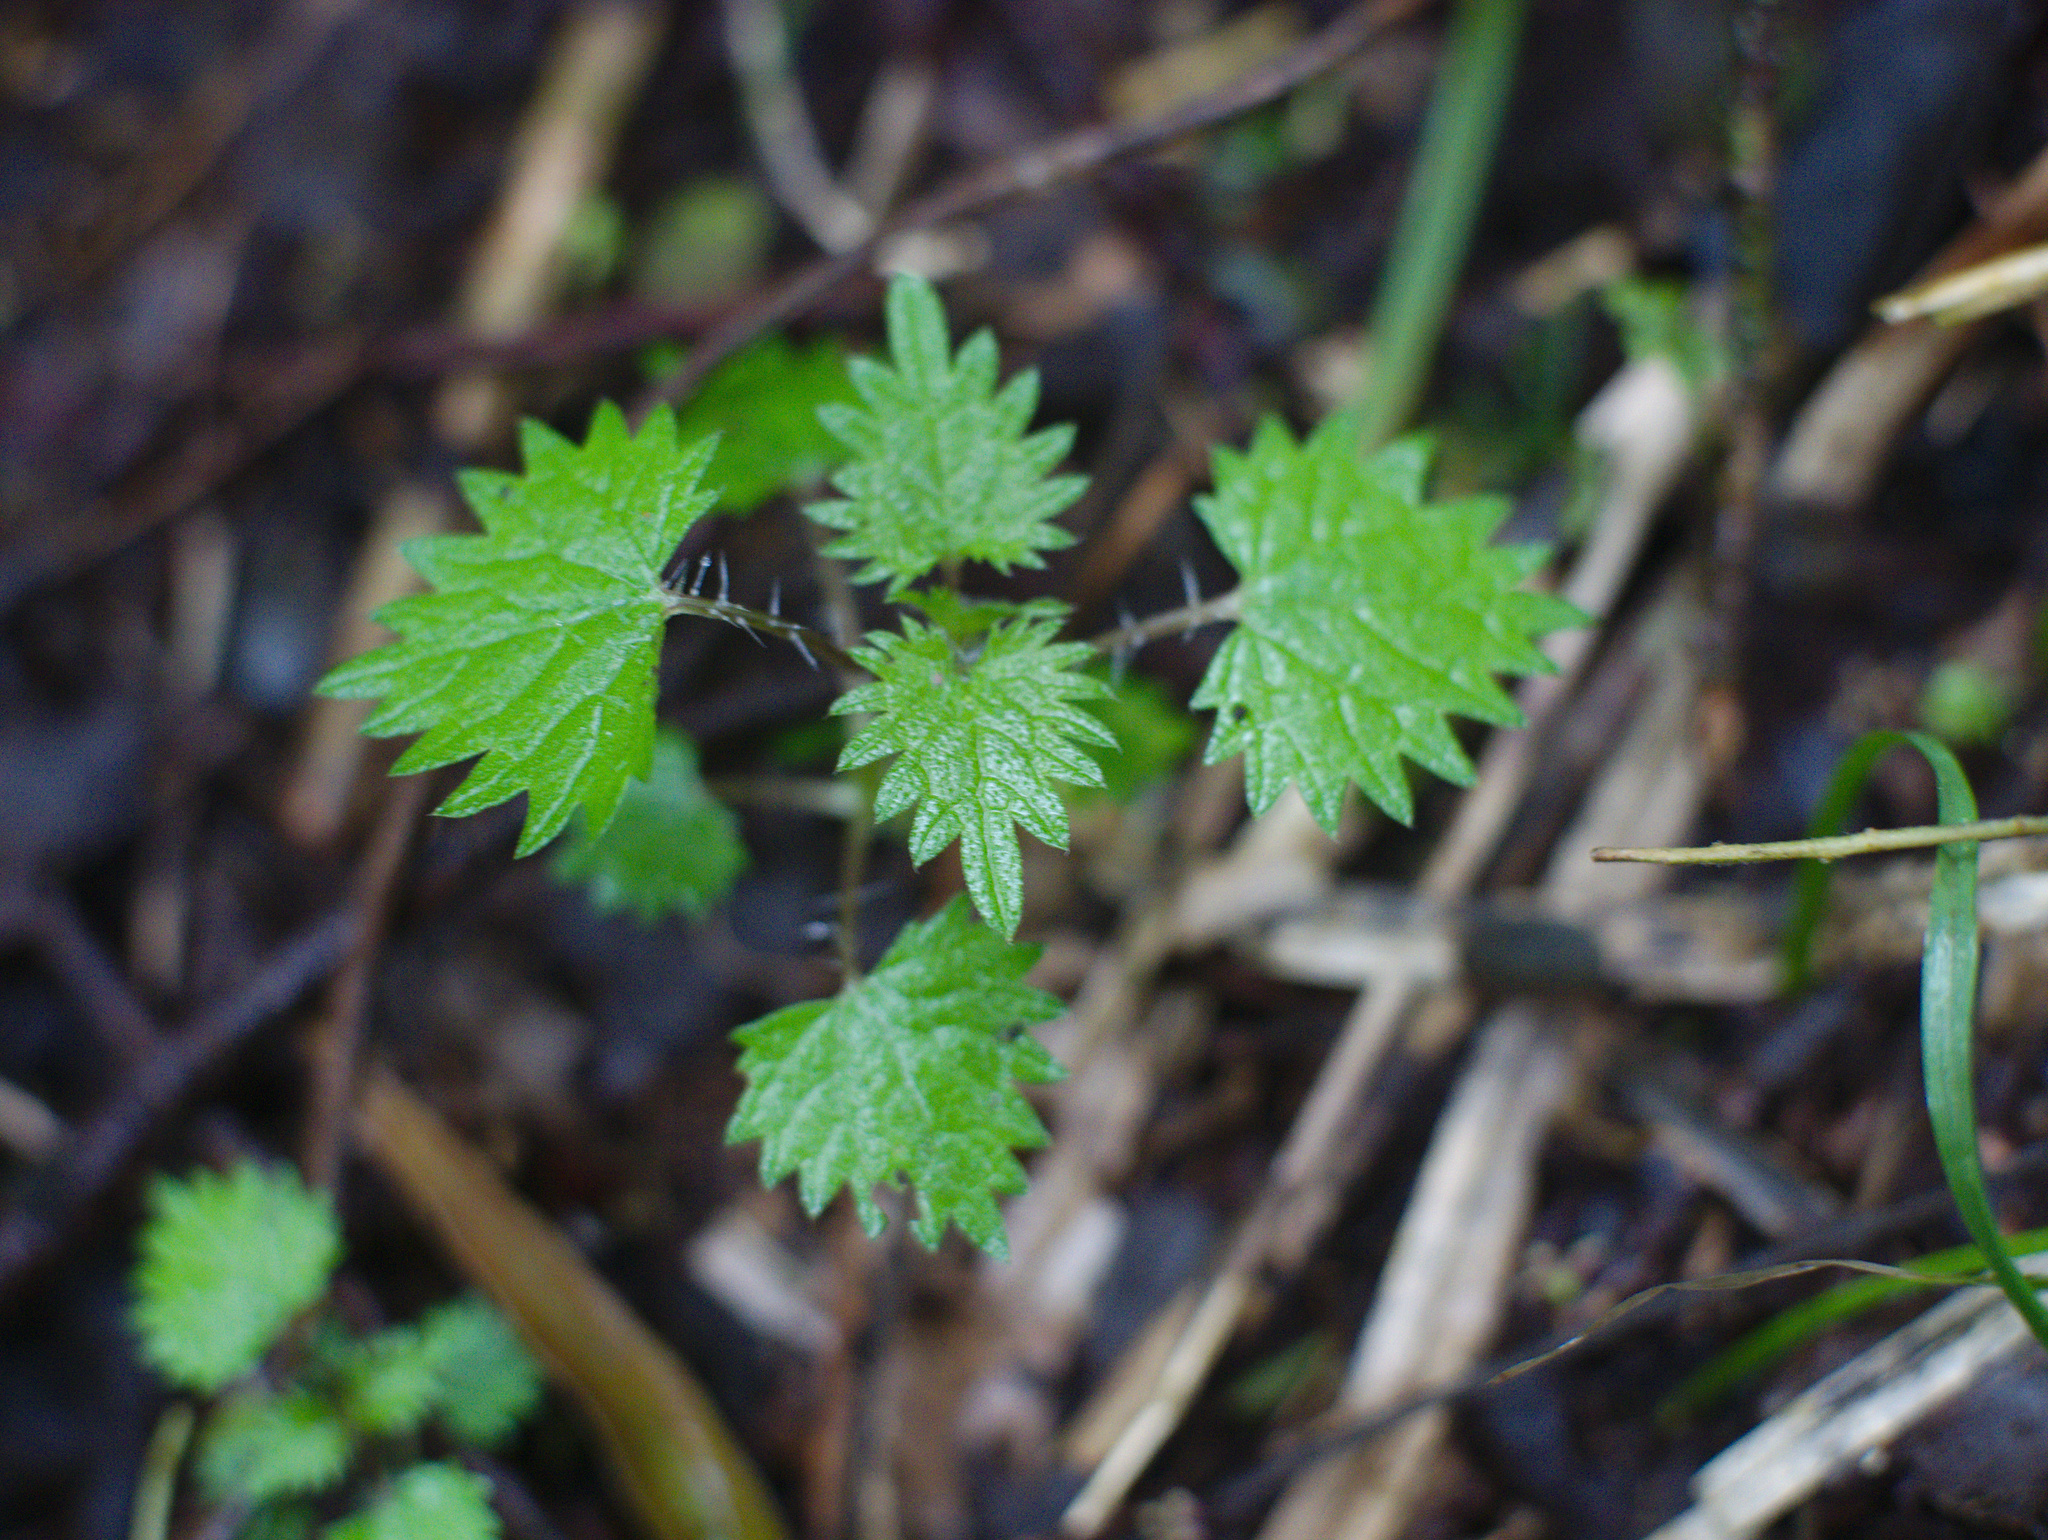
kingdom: Plantae
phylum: Tracheophyta
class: Magnoliopsida
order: Rosales
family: Urticaceae
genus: Urtica
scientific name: Urtica sykesii
